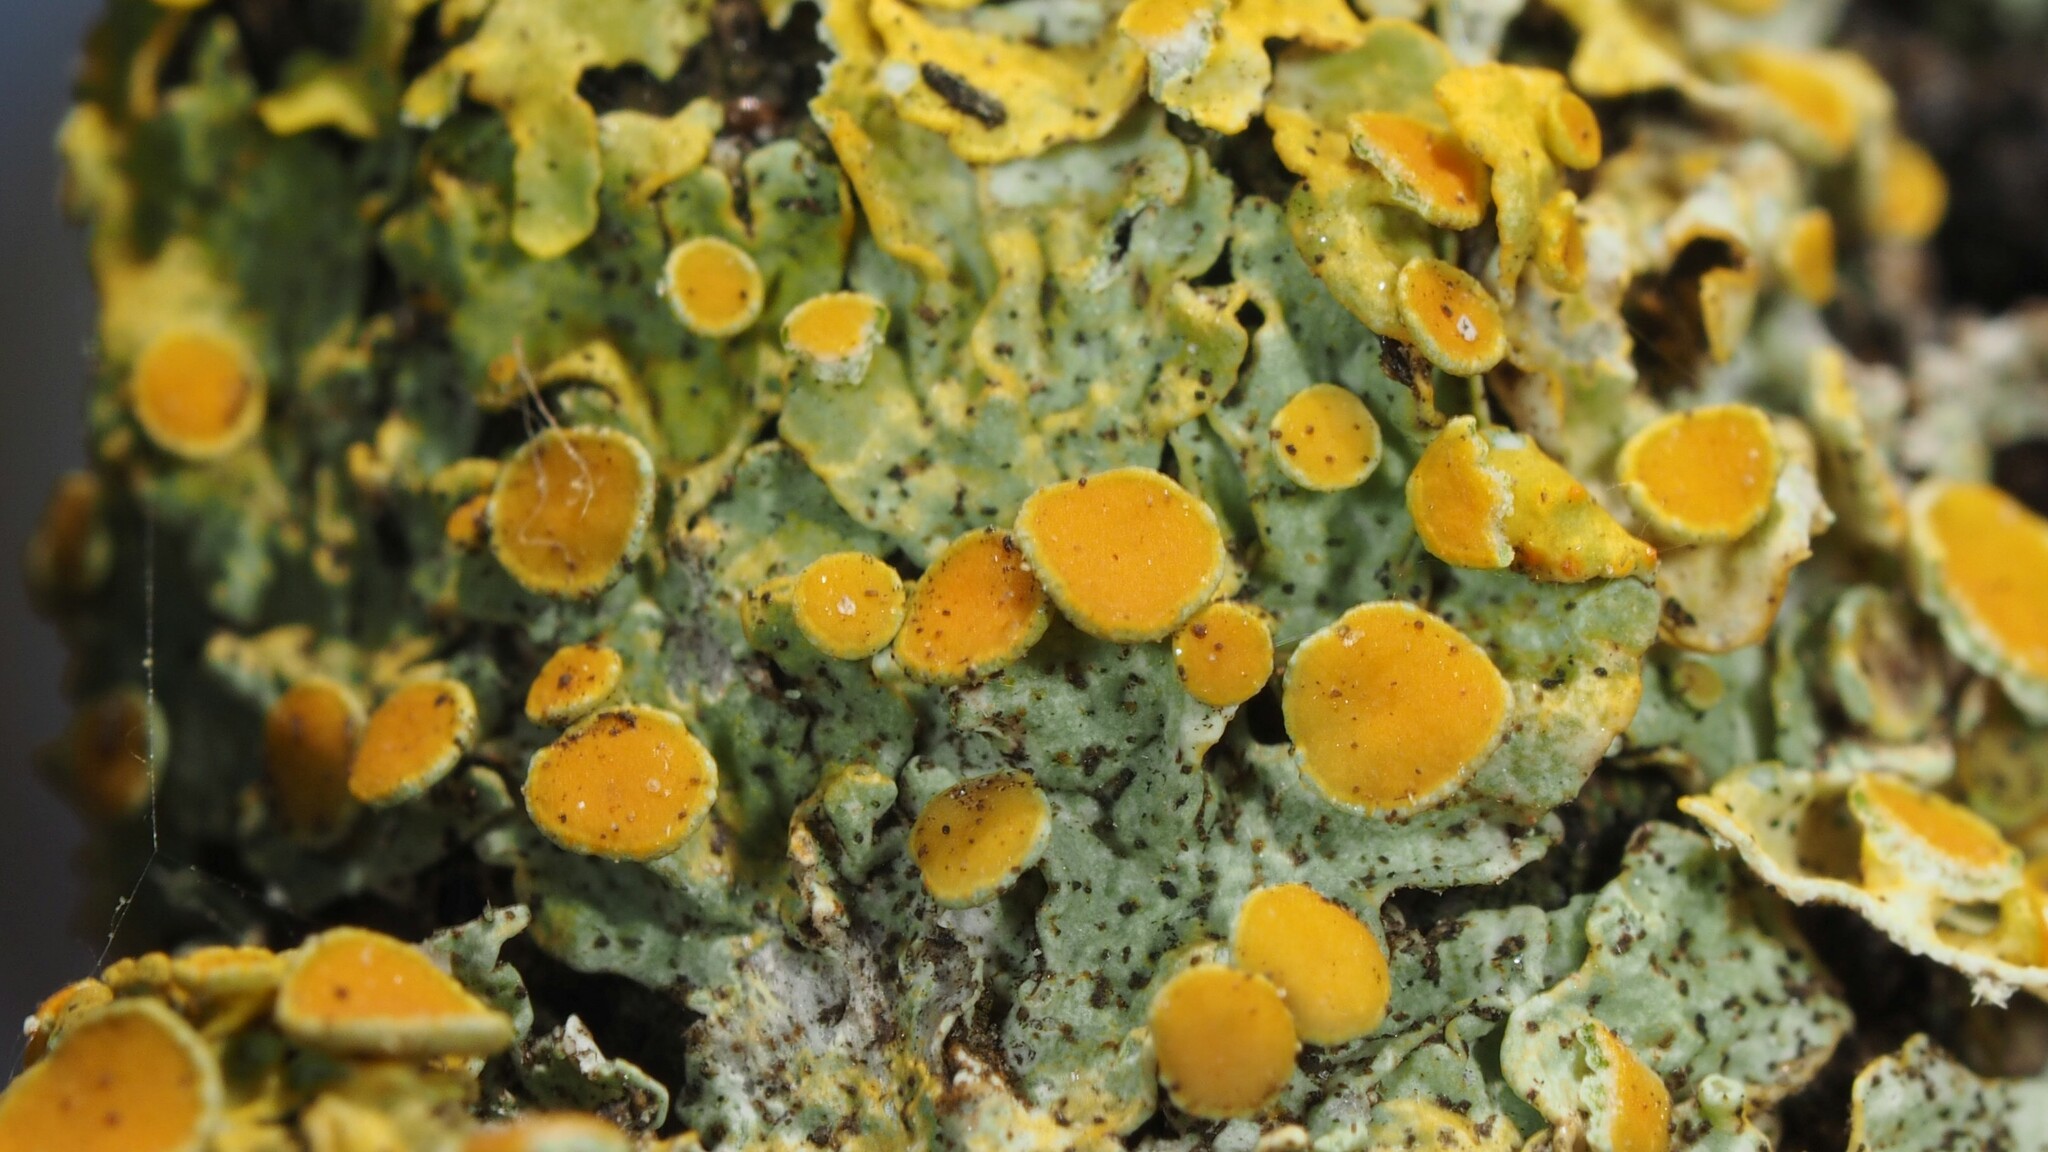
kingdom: Fungi
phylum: Ascomycota
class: Lecanoromycetes
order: Teloschistales
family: Teloschistaceae
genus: Xanthoria
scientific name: Xanthoria parietina
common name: Common orange lichen
